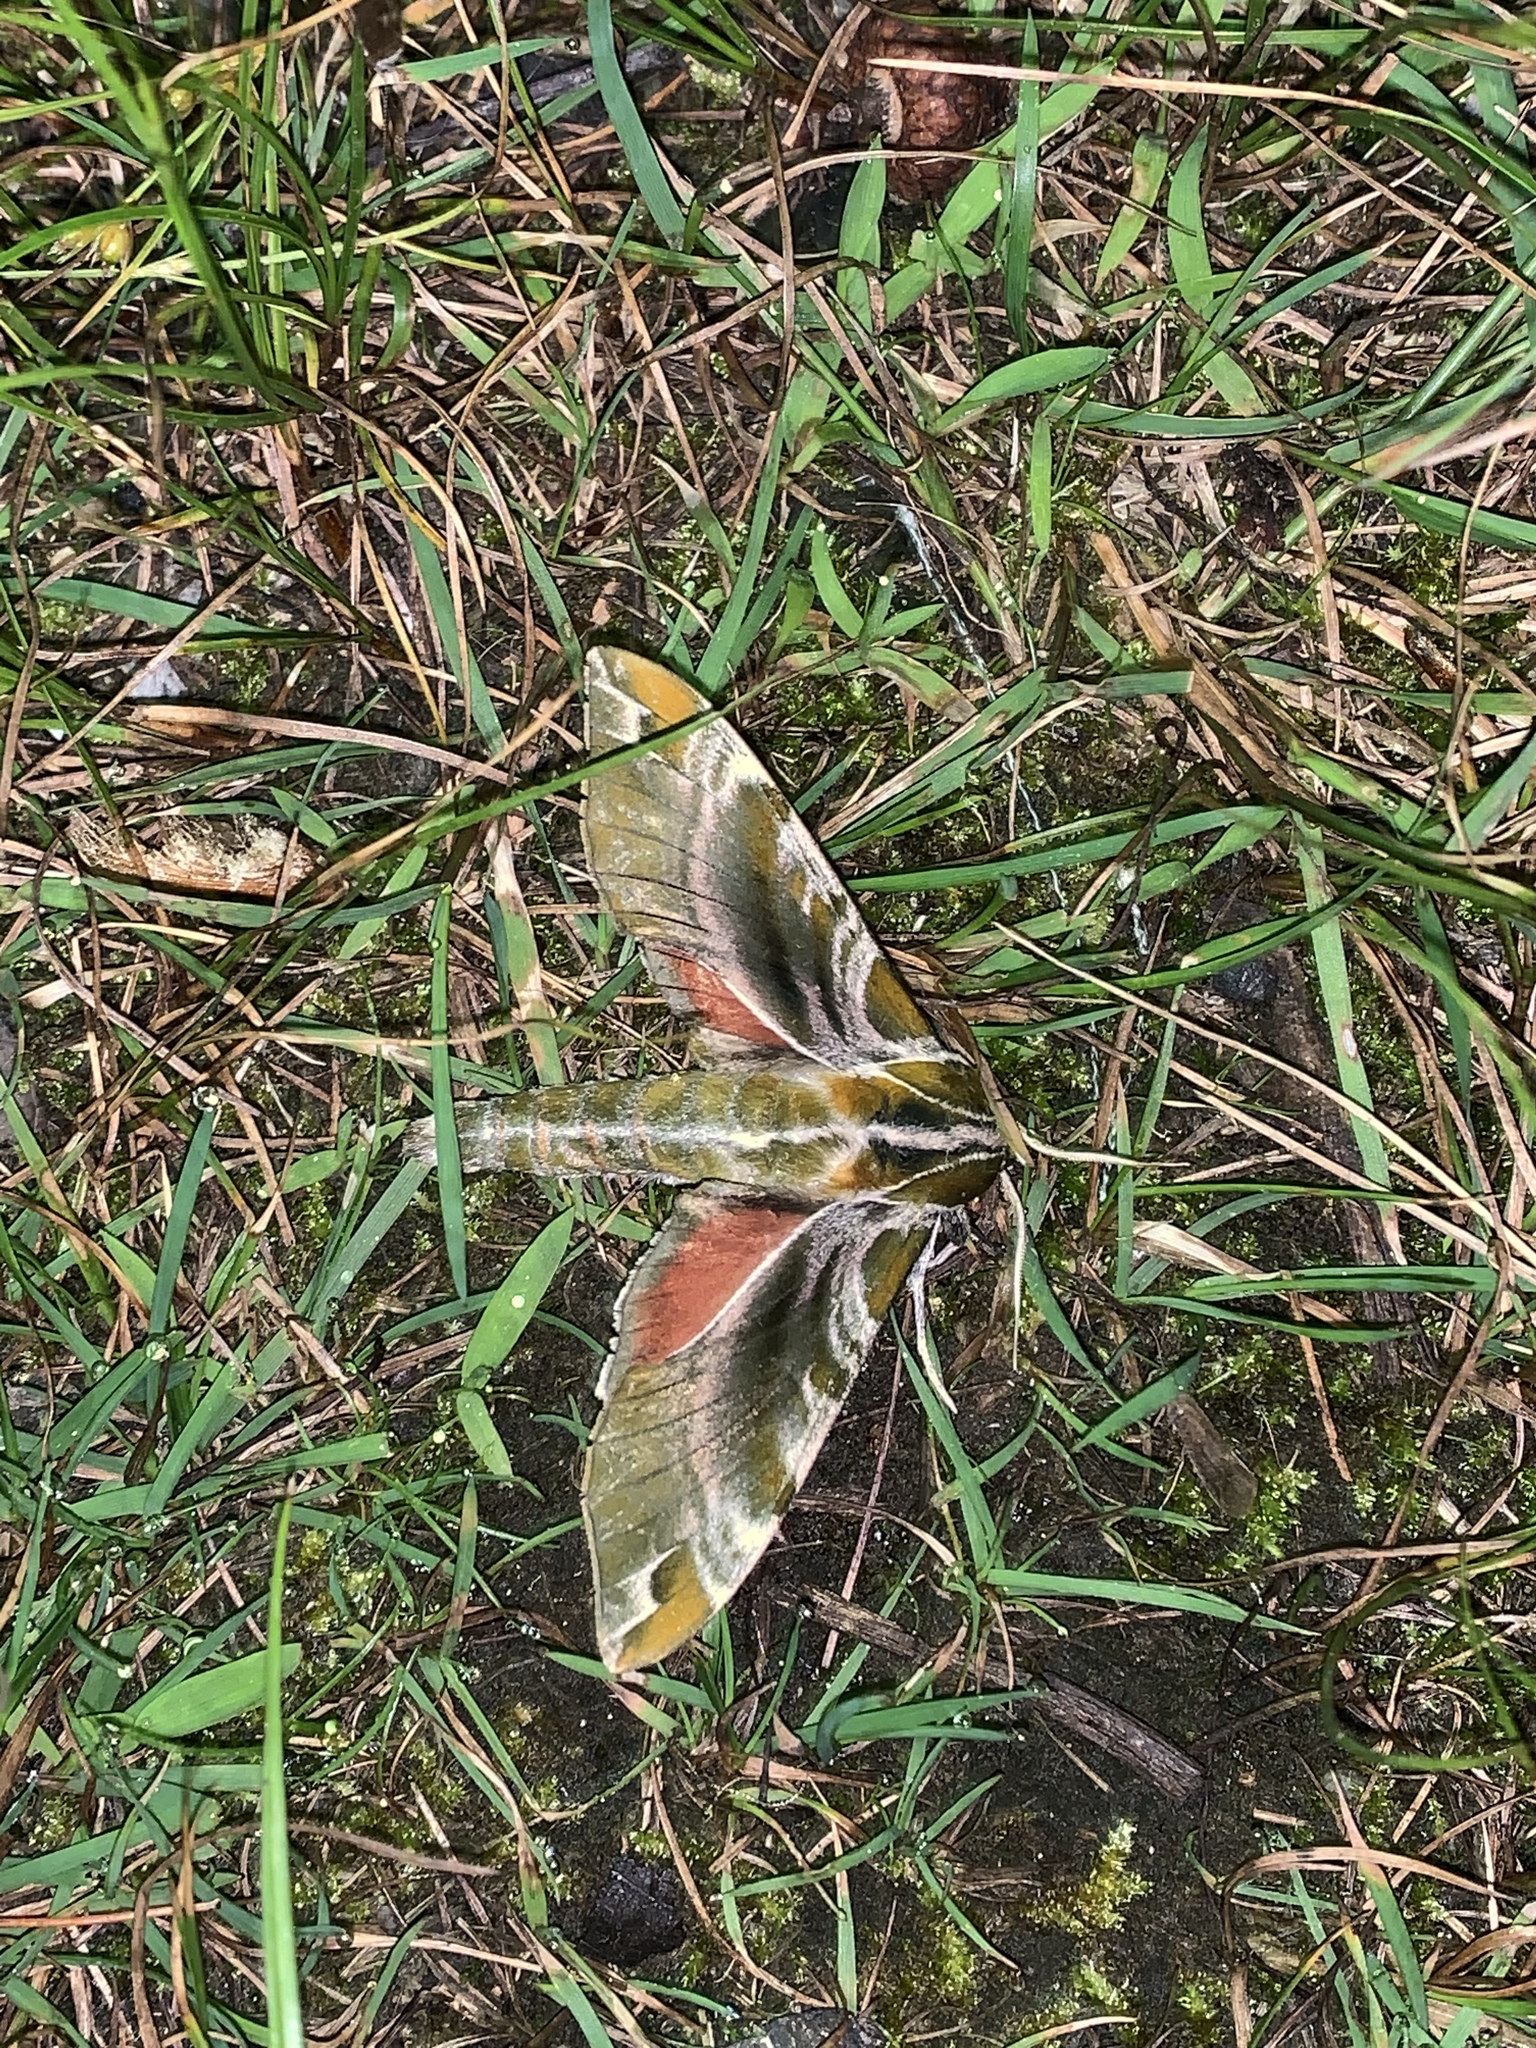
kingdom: Animalia
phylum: Arthropoda
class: Insecta
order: Lepidoptera
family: Sphingidae
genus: Darapsa
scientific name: Darapsa versicolor
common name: Hydrangea sphinx
